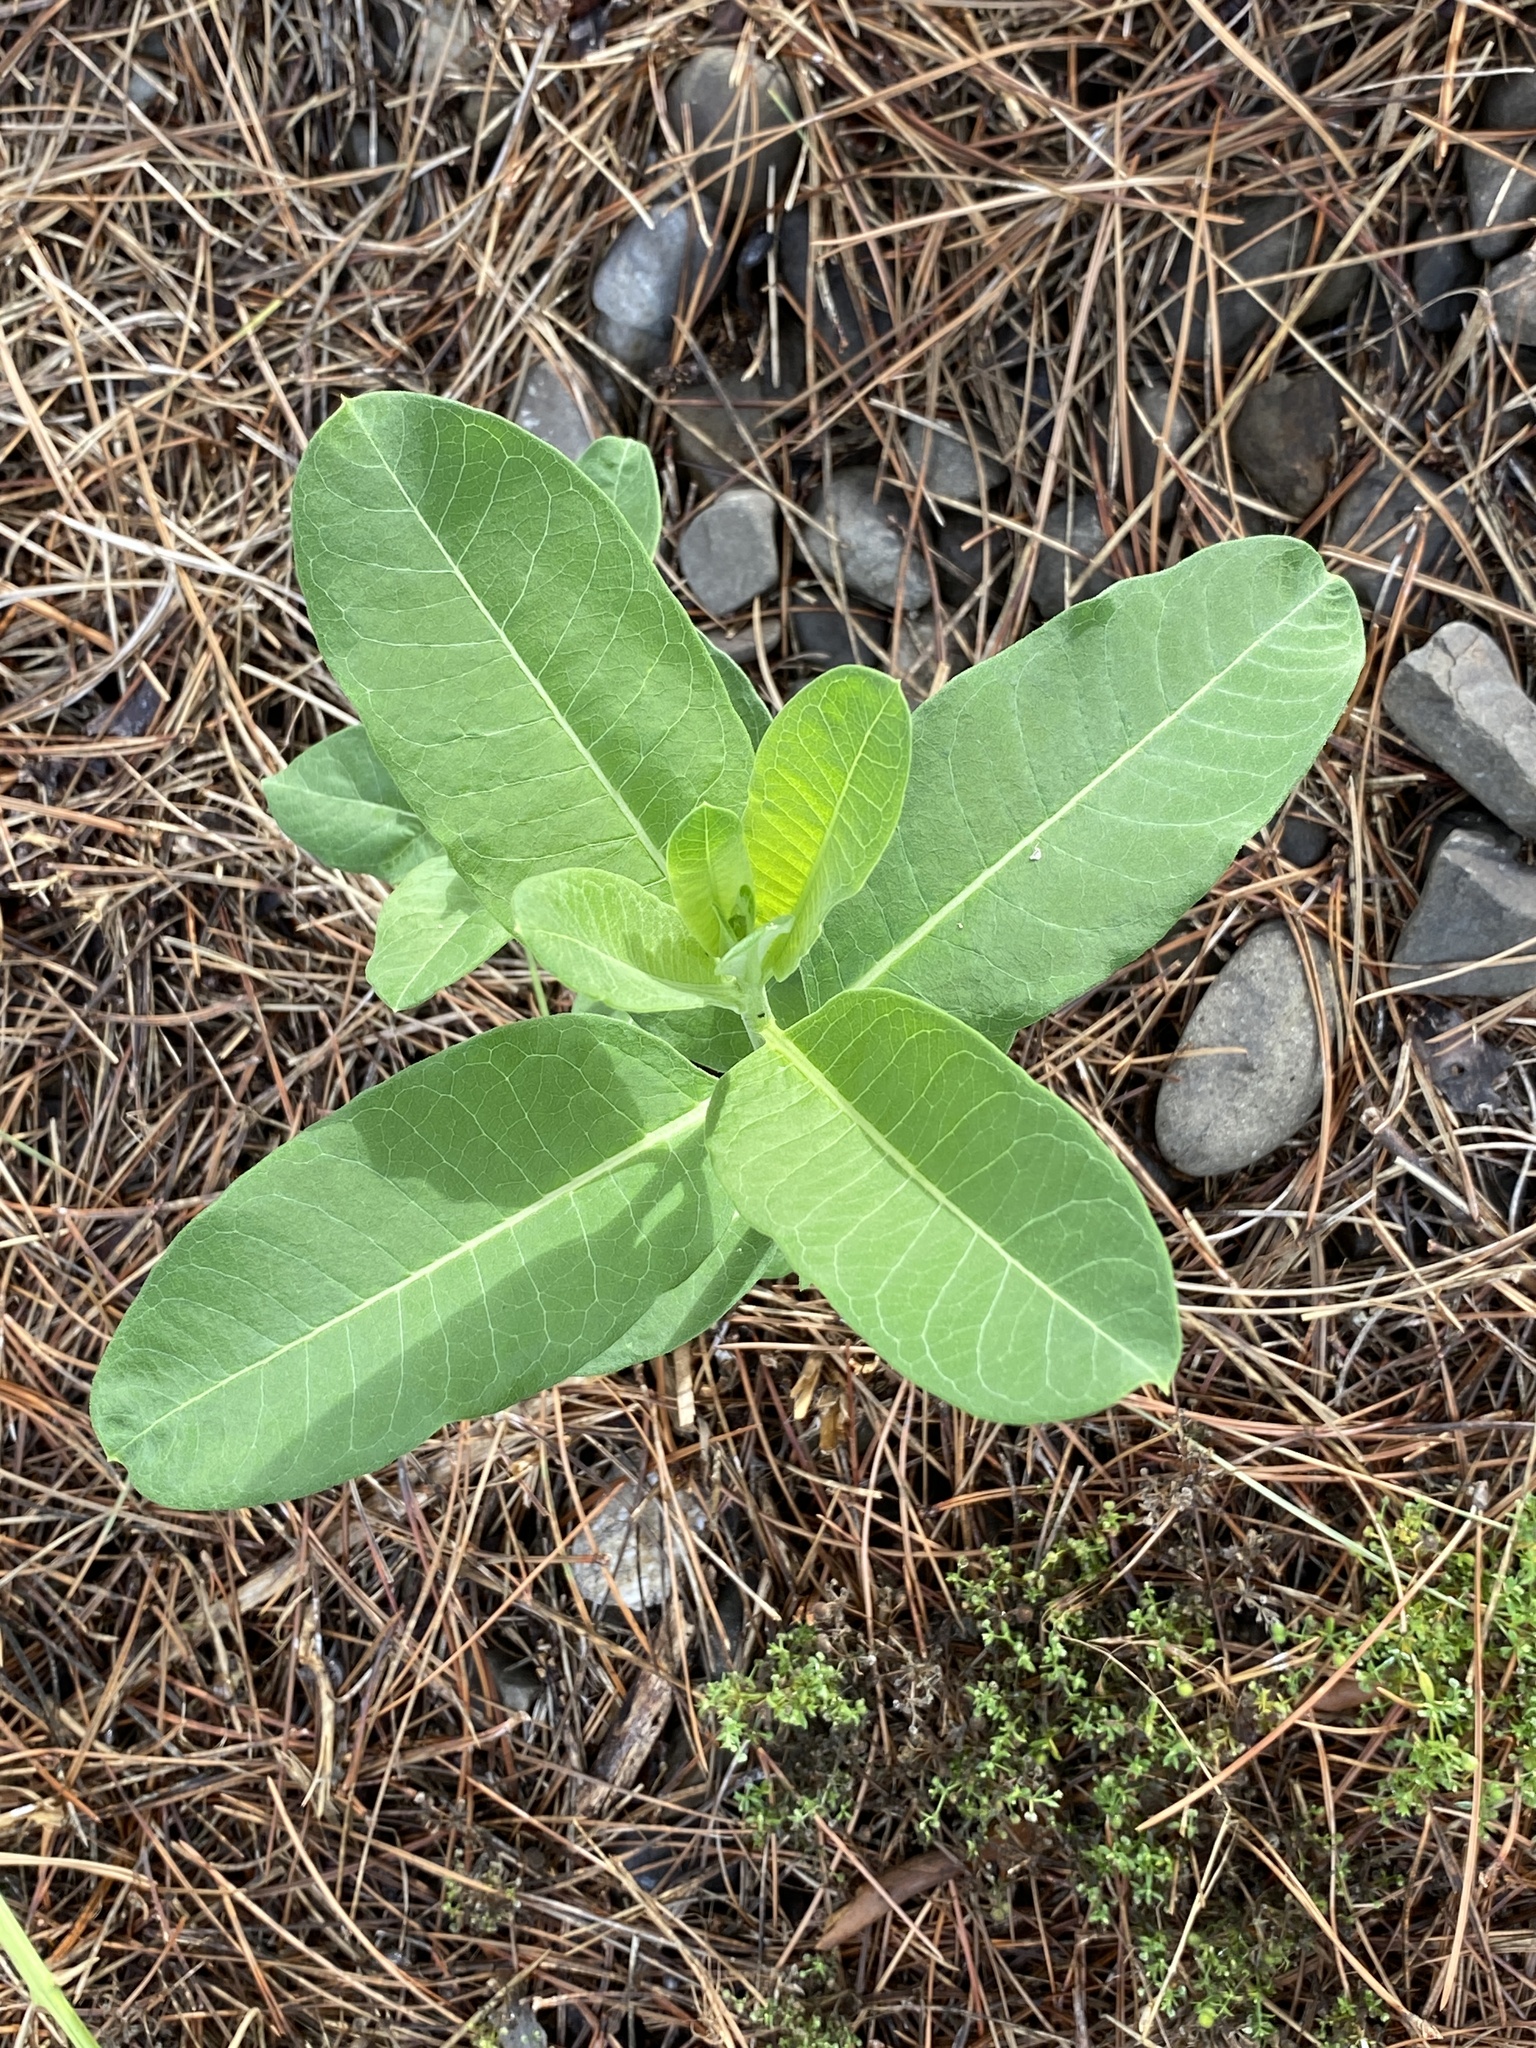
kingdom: Plantae
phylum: Tracheophyta
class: Magnoliopsida
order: Gentianales
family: Apocynaceae
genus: Asclepias
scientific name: Asclepias syriaca
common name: Common milkweed
